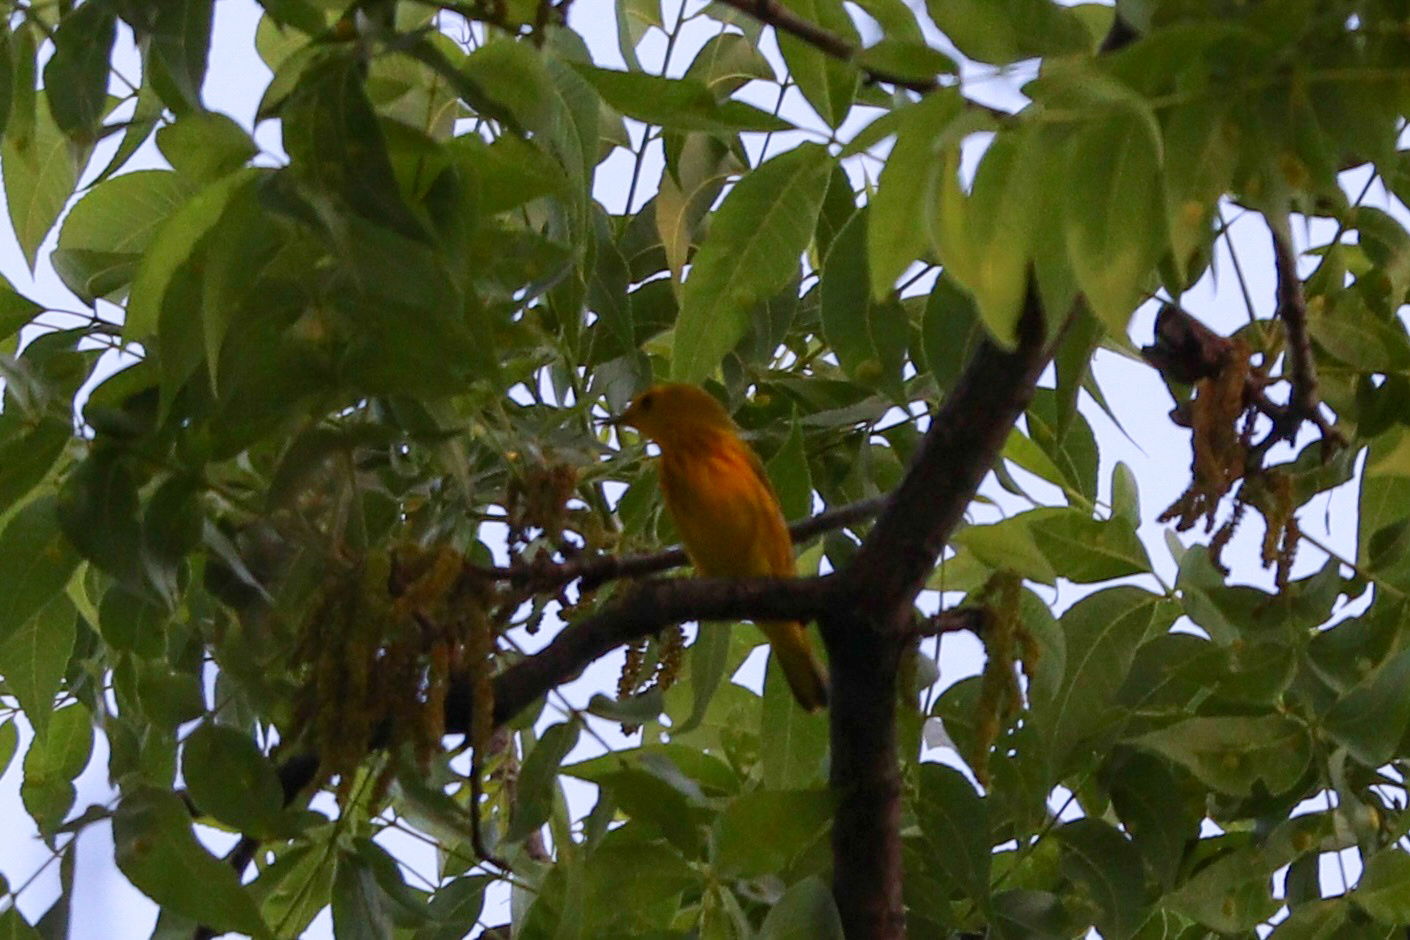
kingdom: Animalia
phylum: Chordata
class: Aves
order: Passeriformes
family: Parulidae
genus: Setophaga
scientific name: Setophaga petechia
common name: Yellow warbler
